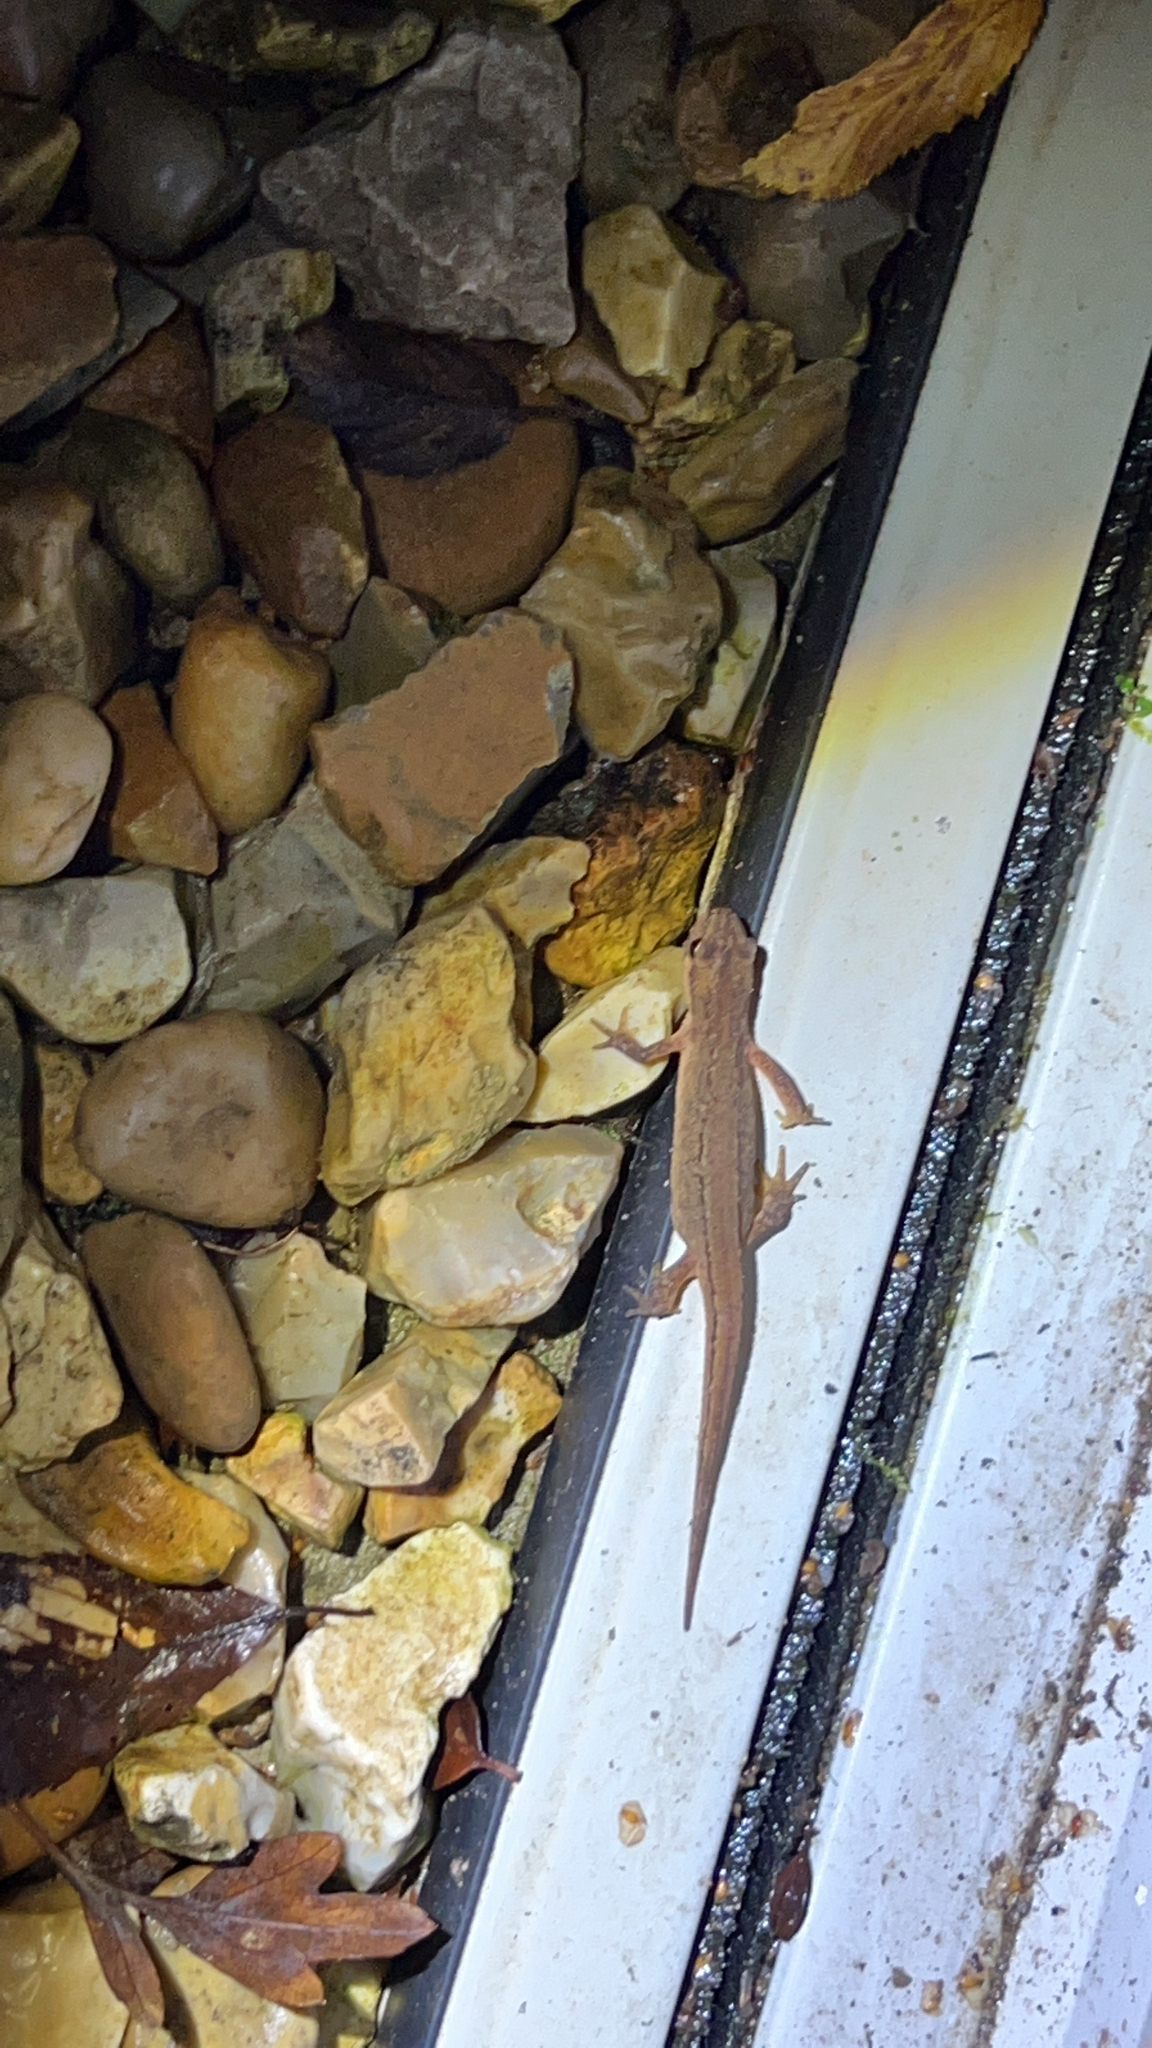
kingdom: Animalia
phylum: Chordata
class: Amphibia
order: Caudata
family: Salamandridae
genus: Lissotriton
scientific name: Lissotriton vulgaris
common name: Smooth newt
